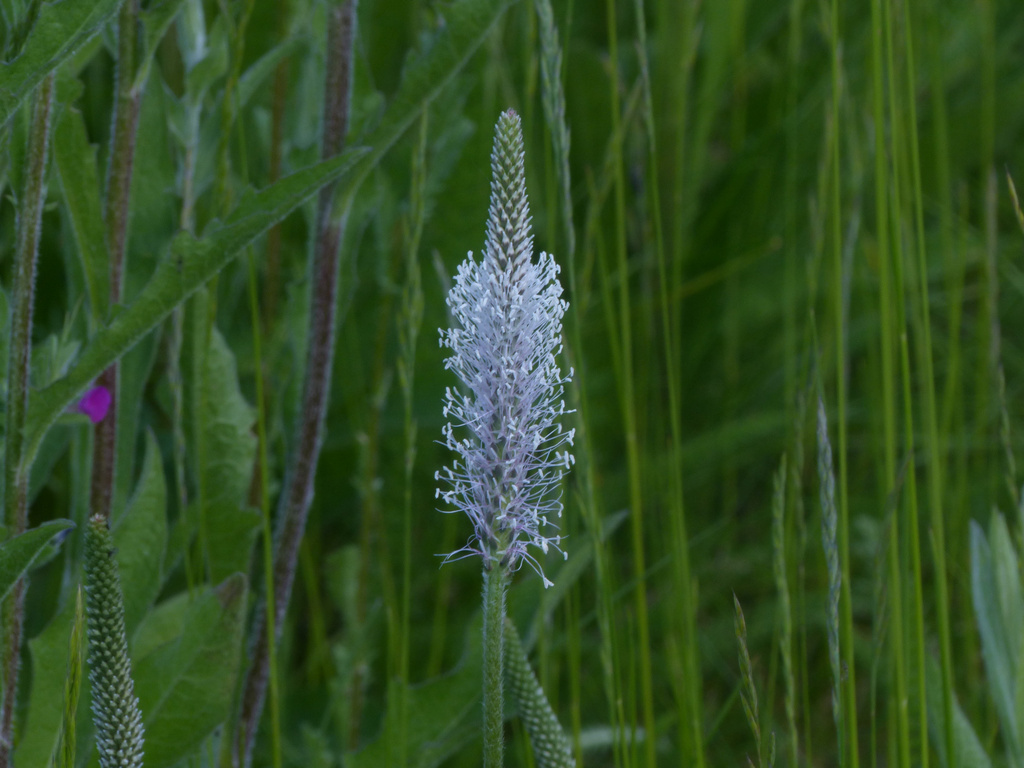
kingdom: Plantae
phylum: Tracheophyta
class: Magnoliopsida
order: Lamiales
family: Plantaginaceae
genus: Plantago
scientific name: Plantago media
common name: Hoary plantain
